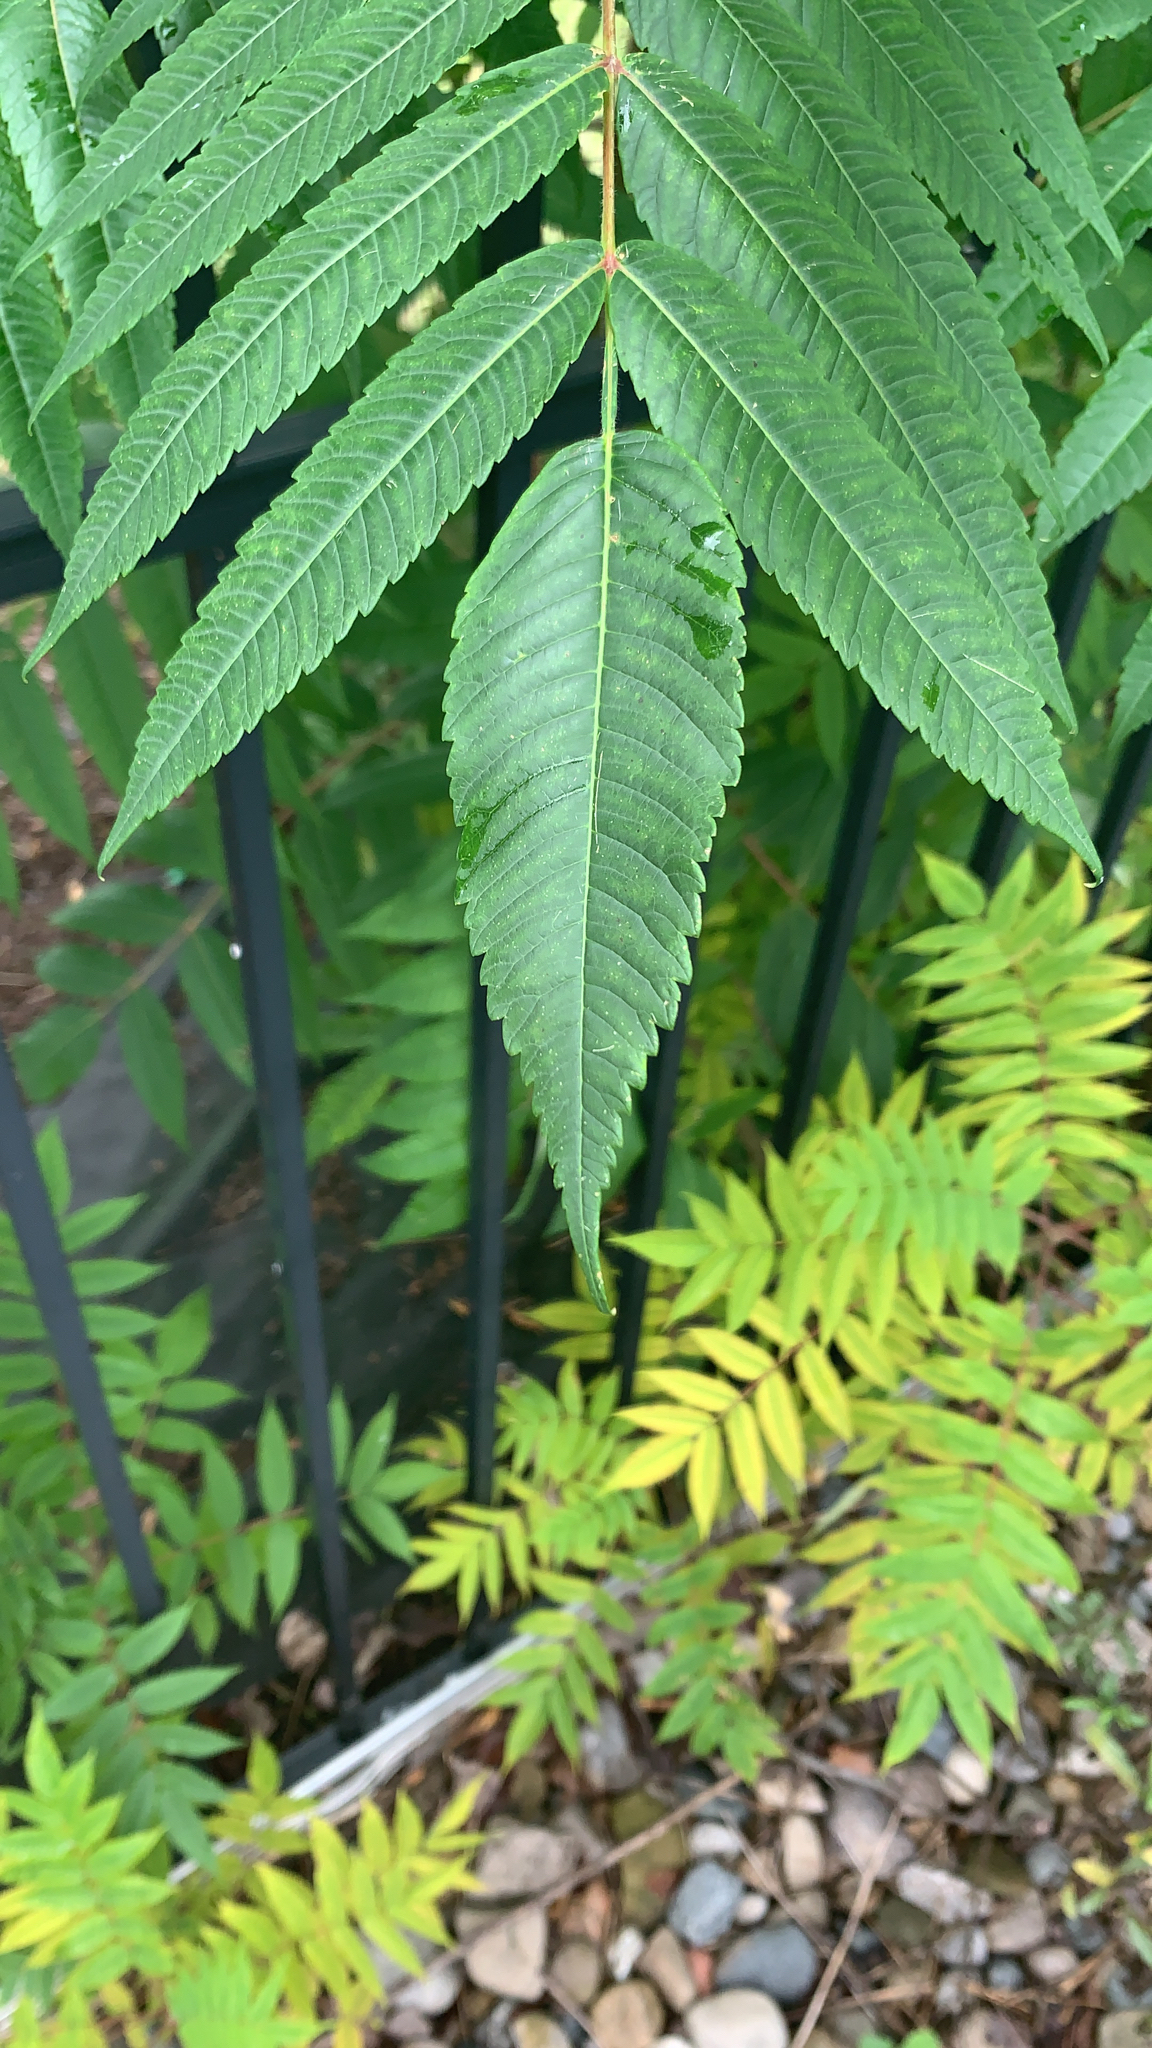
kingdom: Plantae
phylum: Tracheophyta
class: Magnoliopsida
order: Sapindales
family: Anacardiaceae
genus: Rhus
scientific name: Rhus typhina
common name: Staghorn sumac
